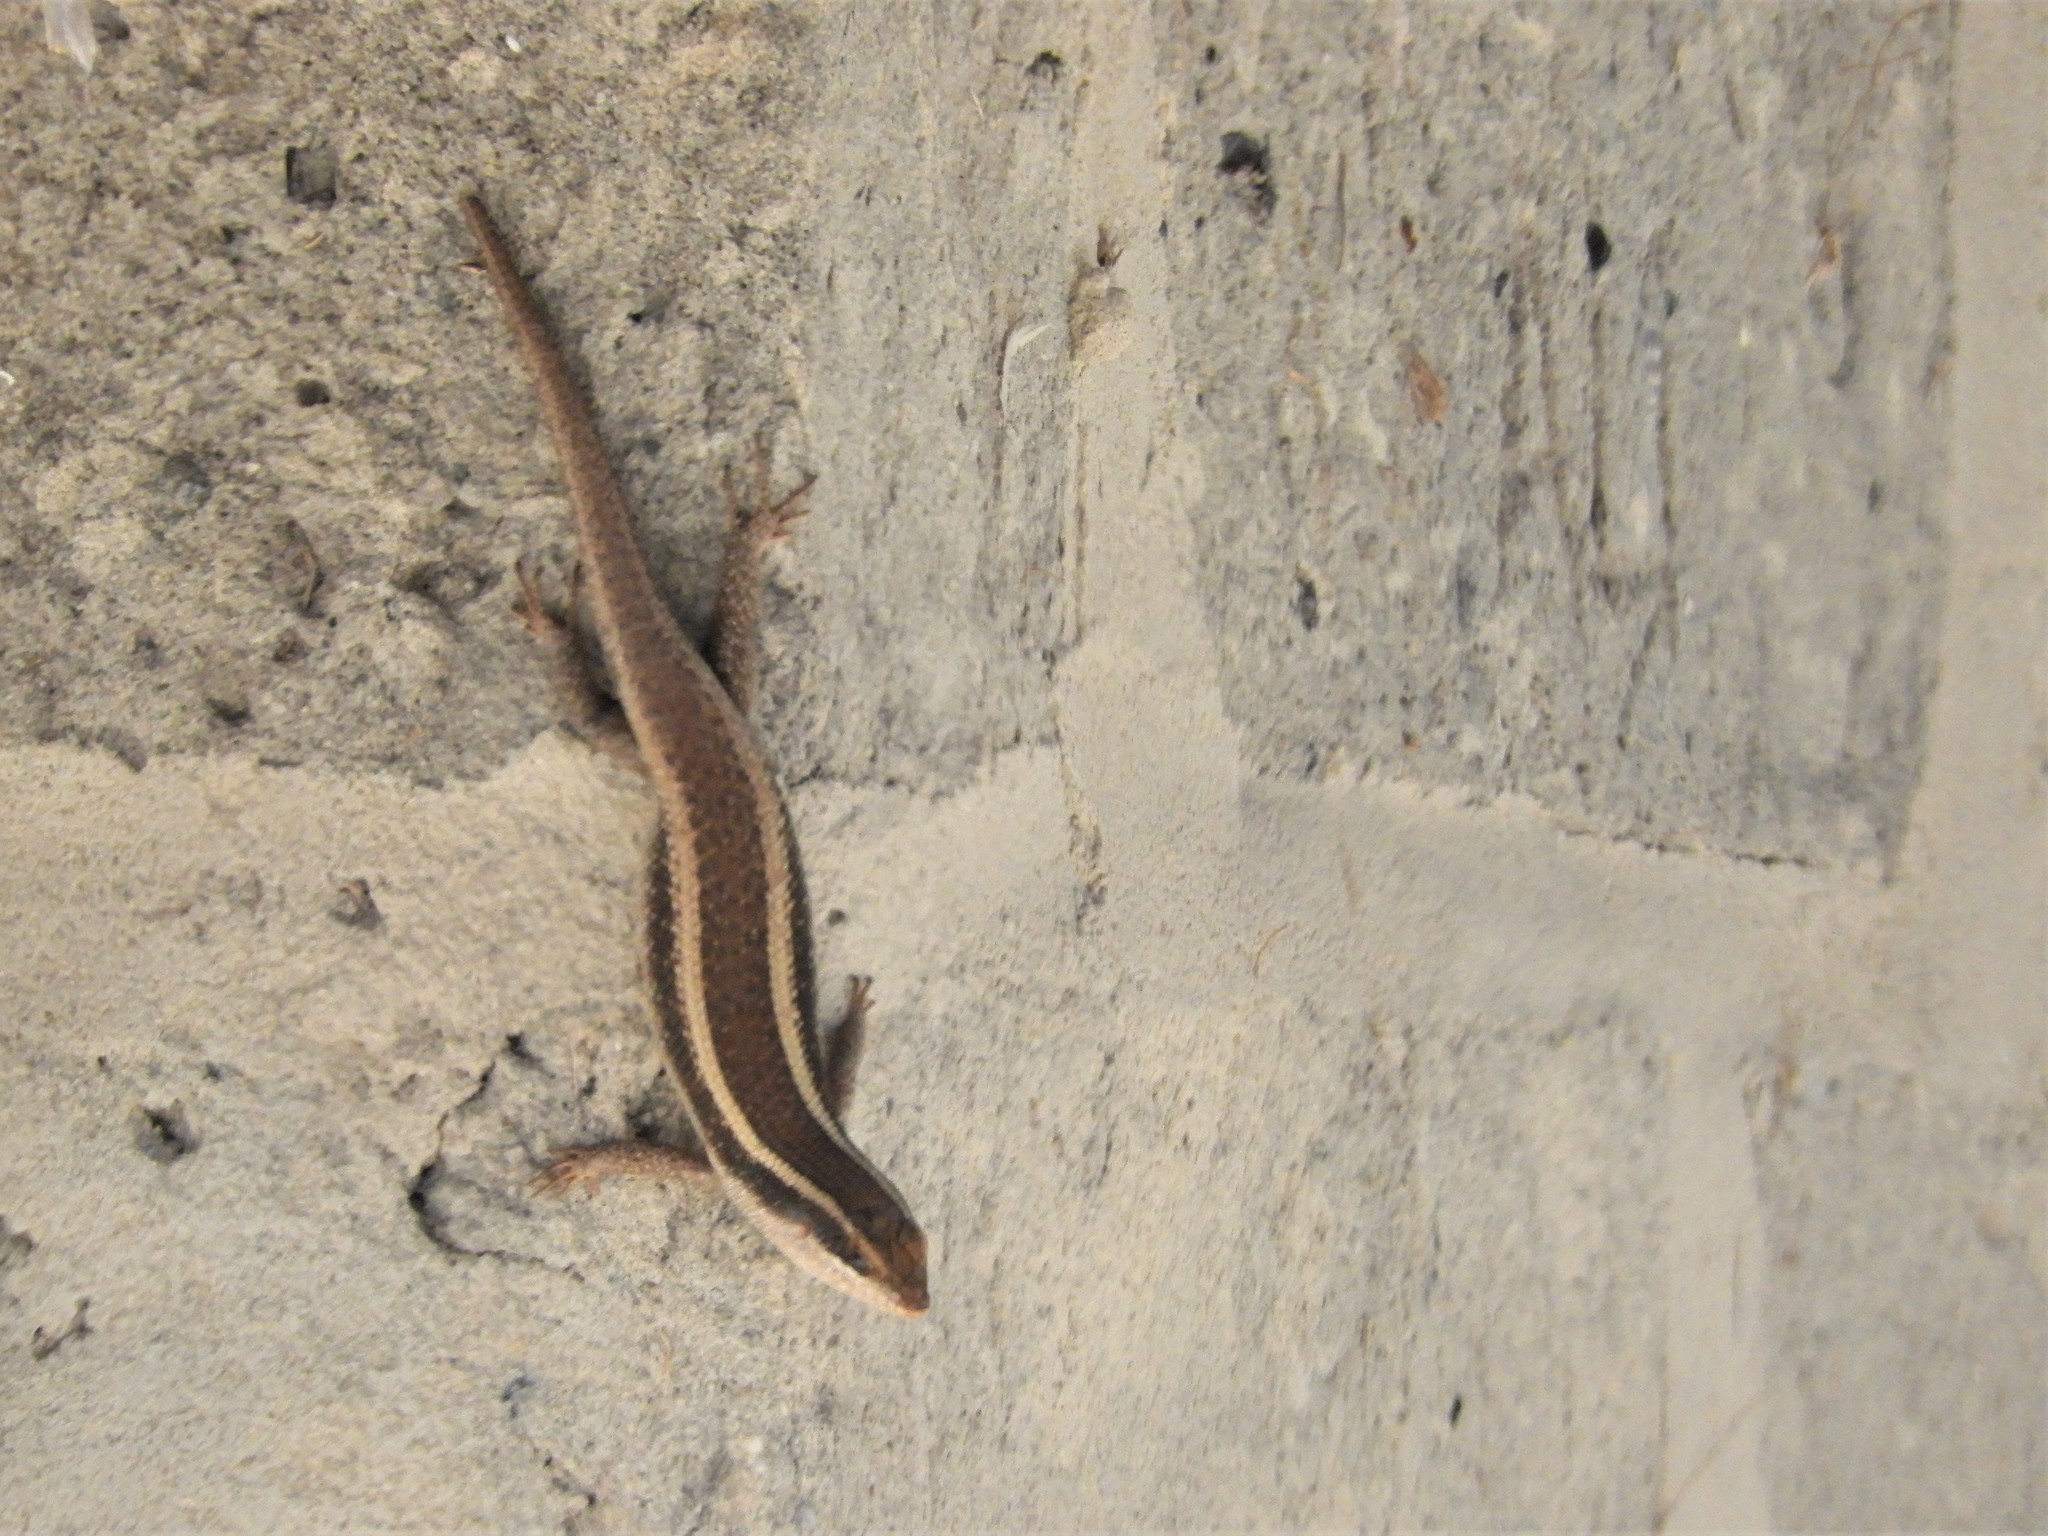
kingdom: Animalia
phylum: Chordata
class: Squamata
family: Scincidae
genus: Trachylepis
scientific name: Trachylepis striata
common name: African striped mabuya
